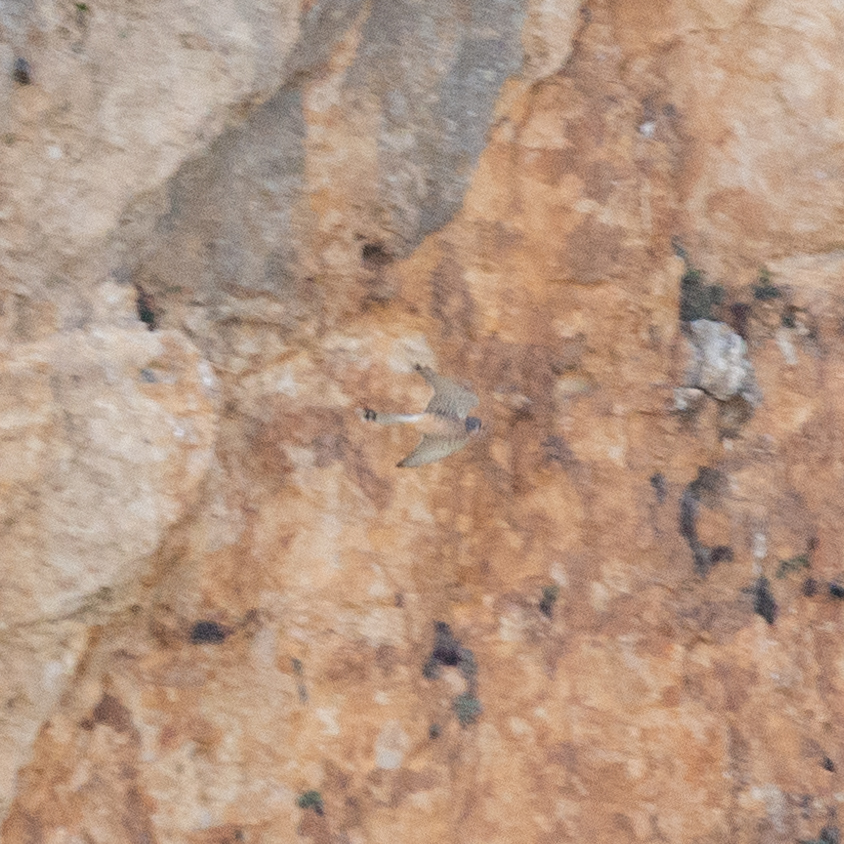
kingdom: Animalia
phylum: Chordata
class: Aves
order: Falconiformes
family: Falconidae
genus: Falco
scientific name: Falco tinnunculus
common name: Common kestrel
